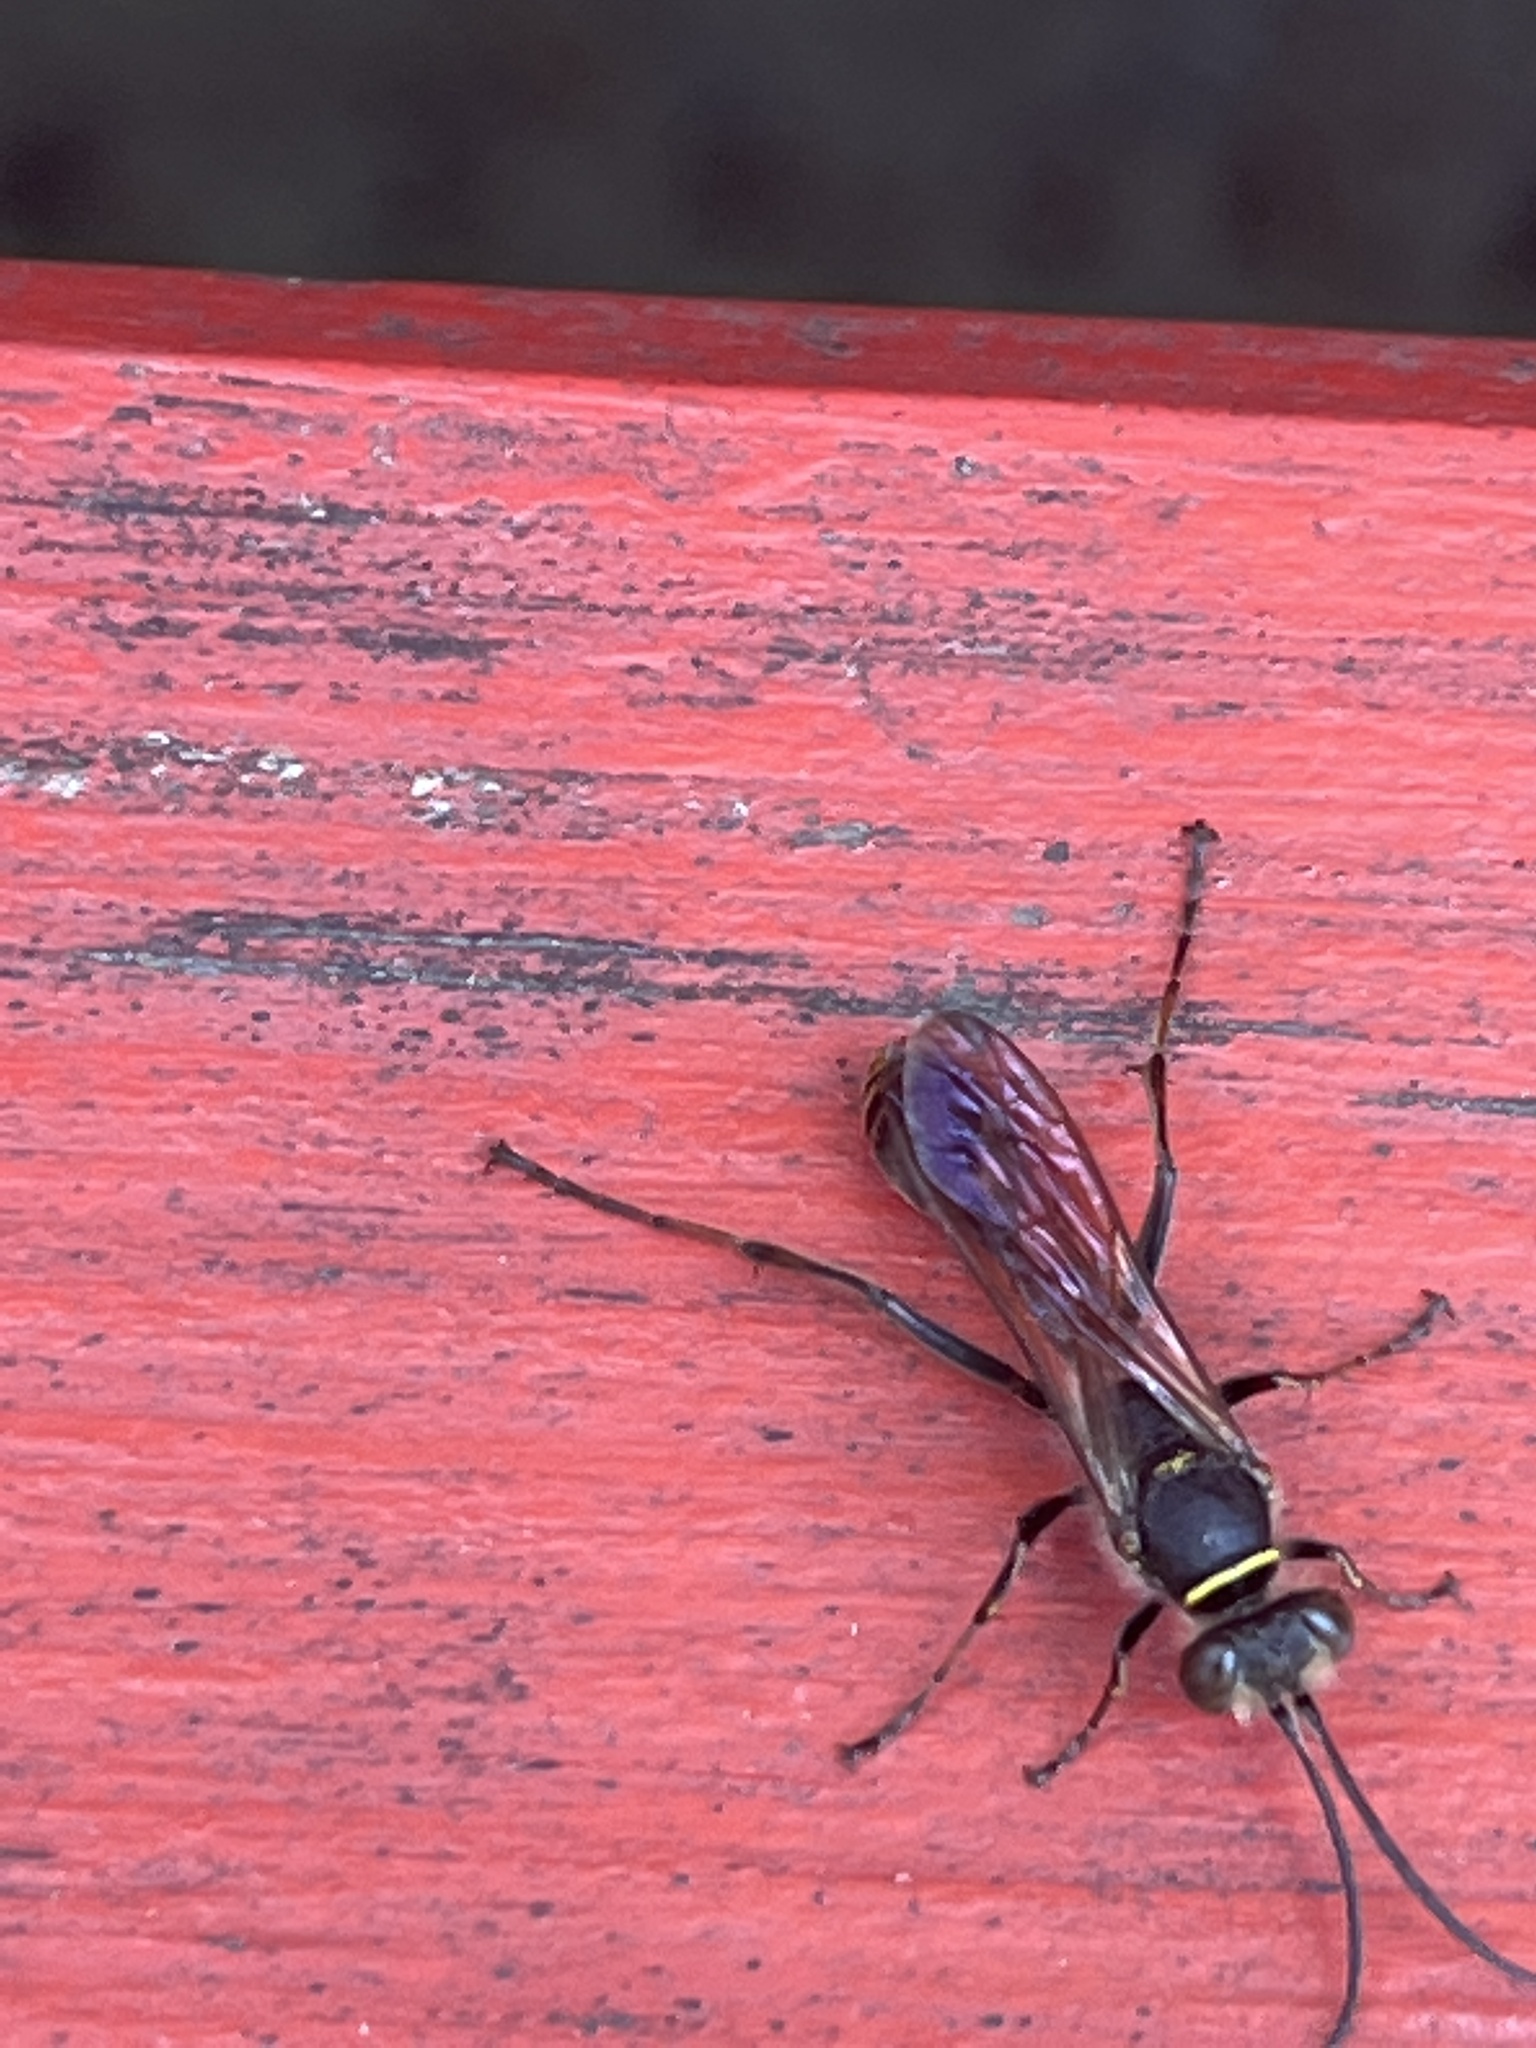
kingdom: Animalia
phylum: Arthropoda
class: Insecta
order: Hymenoptera
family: Sphecidae
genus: Sceliphron
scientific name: Sceliphron curvatum
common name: Pèlopèe
